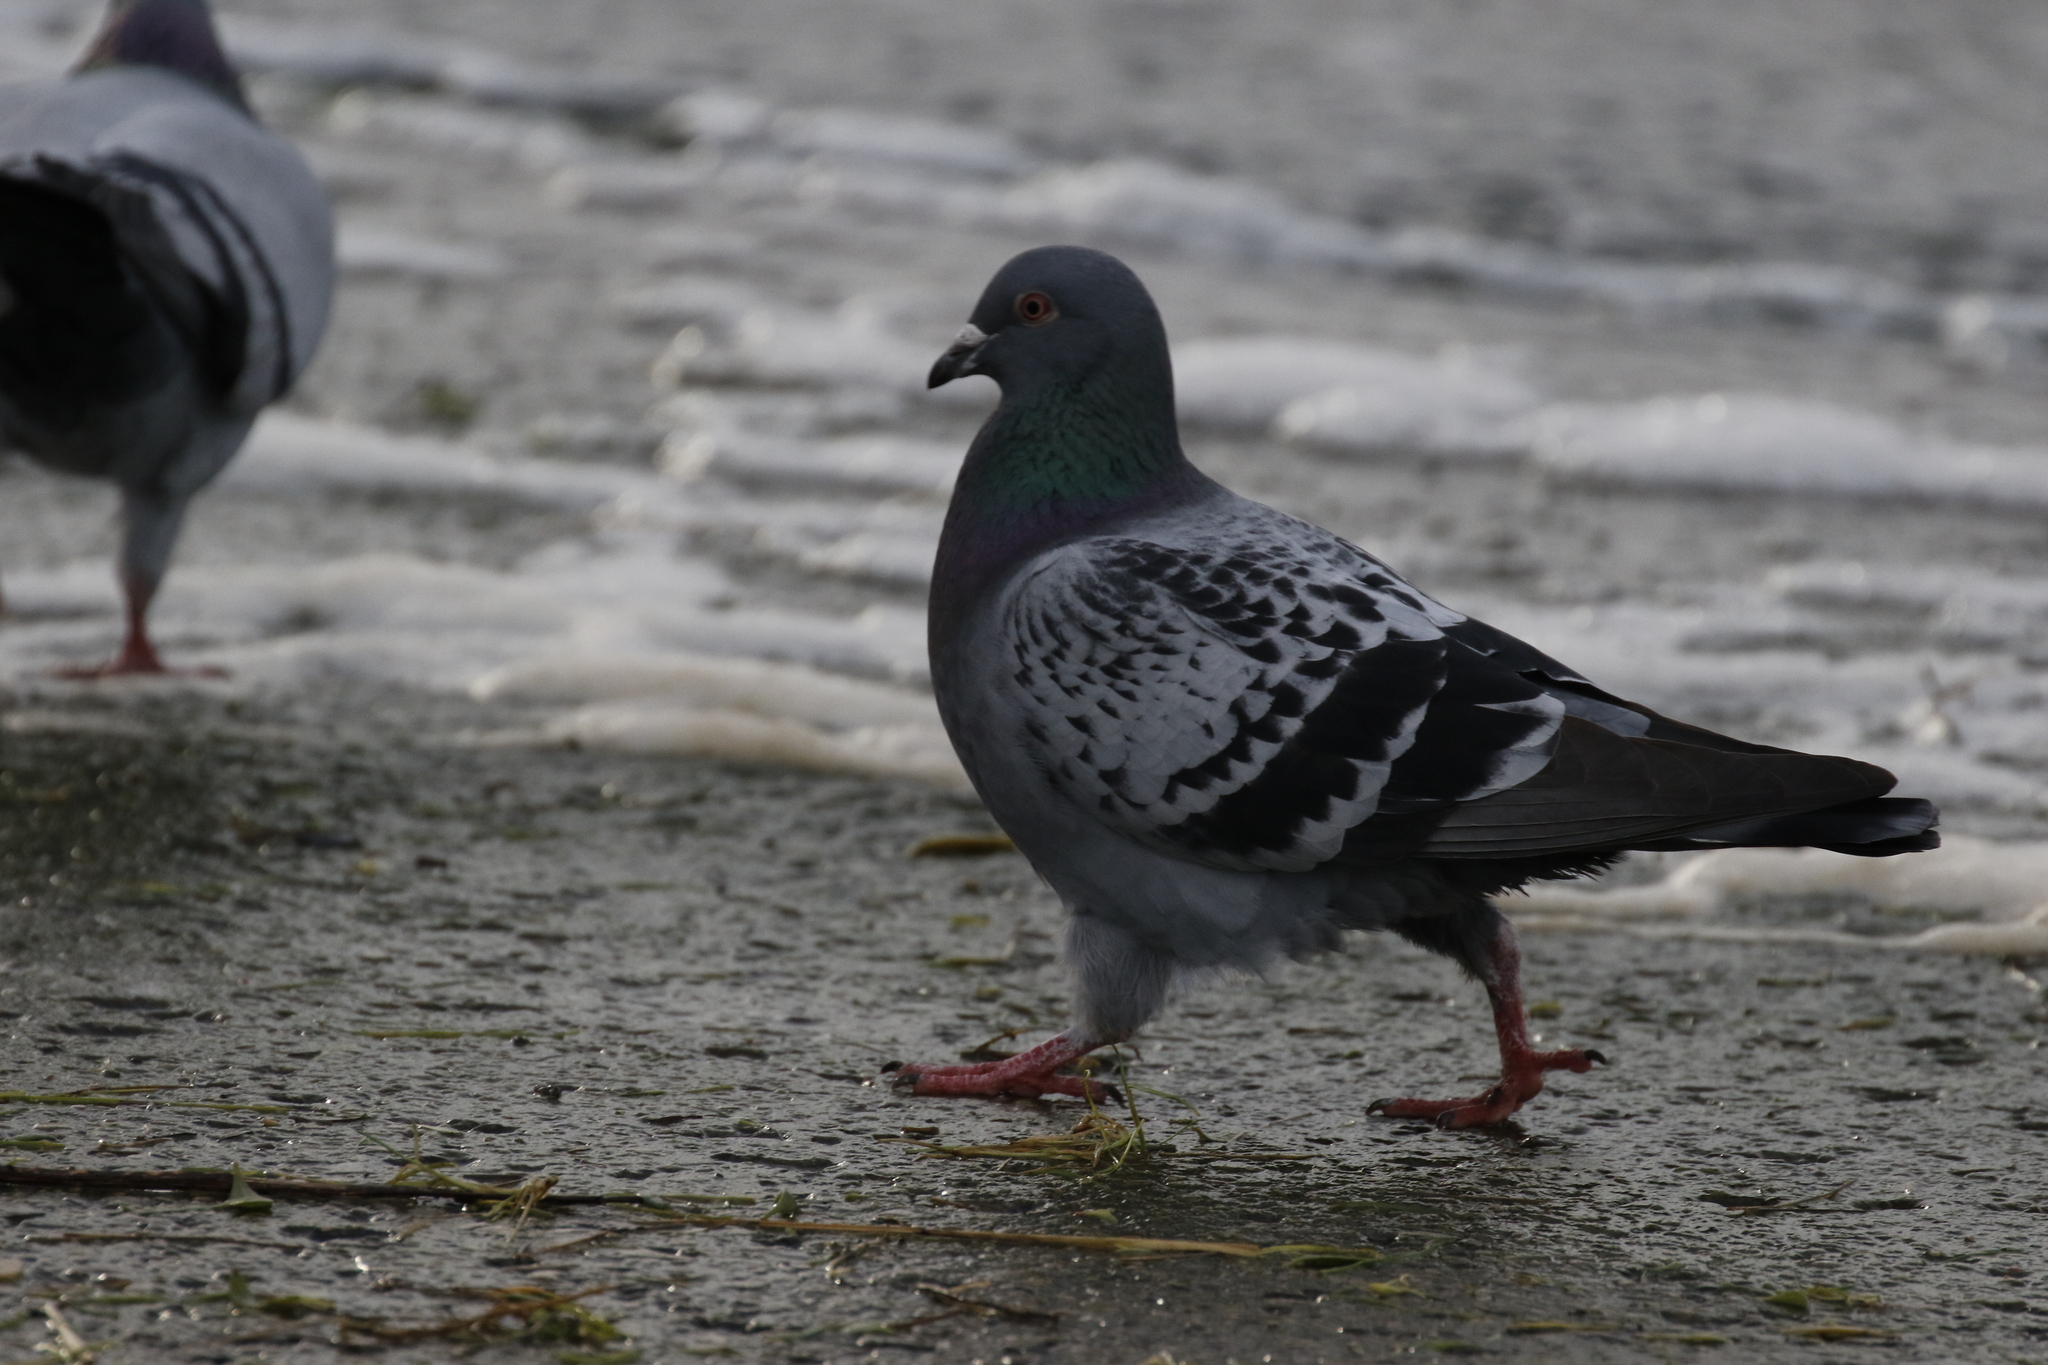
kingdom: Animalia
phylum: Chordata
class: Aves
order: Columbiformes
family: Columbidae
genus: Columba
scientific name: Columba livia
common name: Rock pigeon
